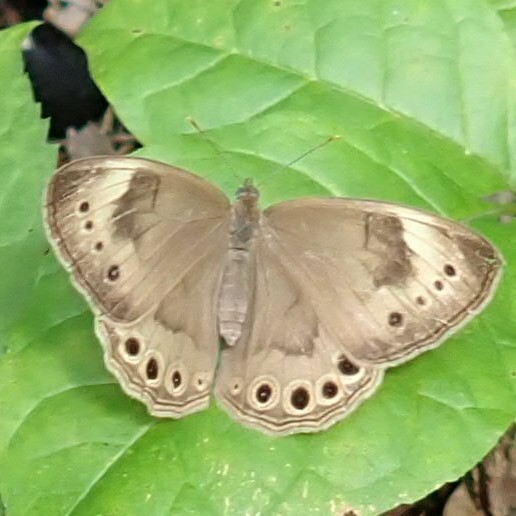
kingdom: Animalia
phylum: Arthropoda
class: Insecta
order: Lepidoptera
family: Nymphalidae
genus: Lethe
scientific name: Lethe eurydice
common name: Eyed brown
